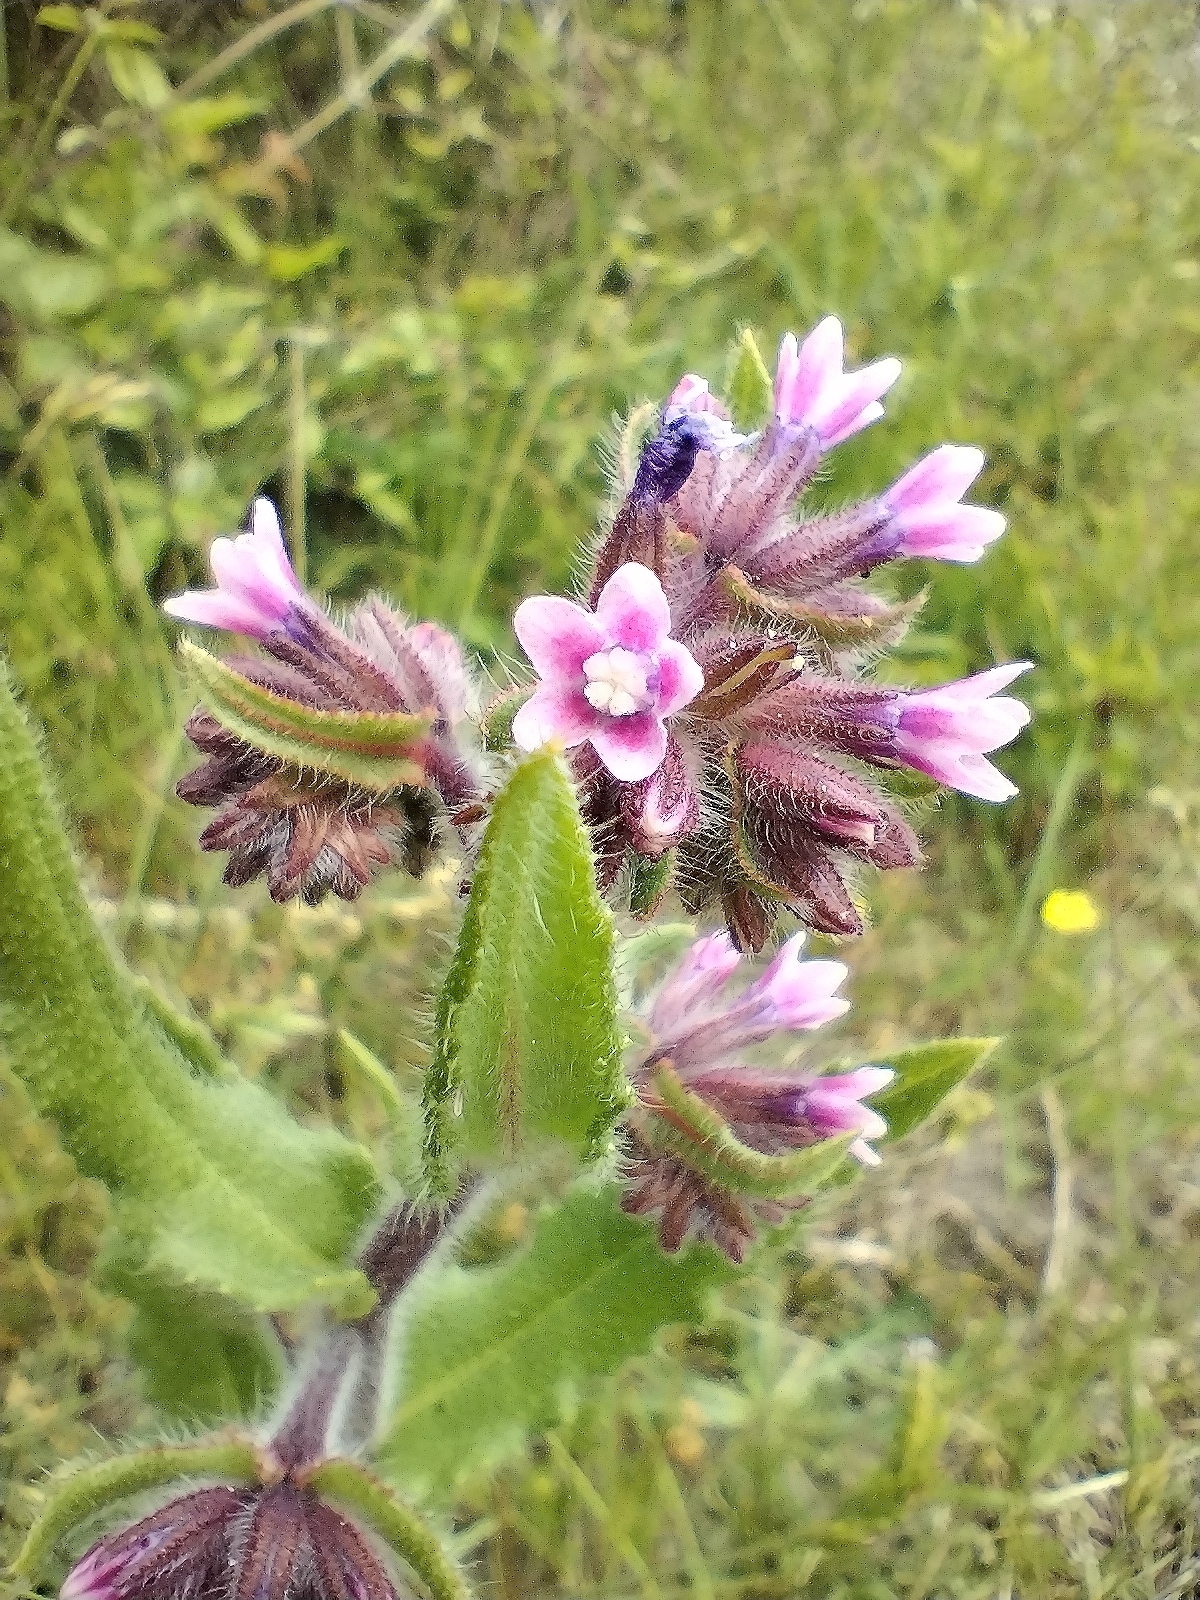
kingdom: Plantae
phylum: Tracheophyta
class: Magnoliopsida
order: Boraginales
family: Boraginaceae
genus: Anchusa
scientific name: Anchusa officinalis
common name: Alkanet
